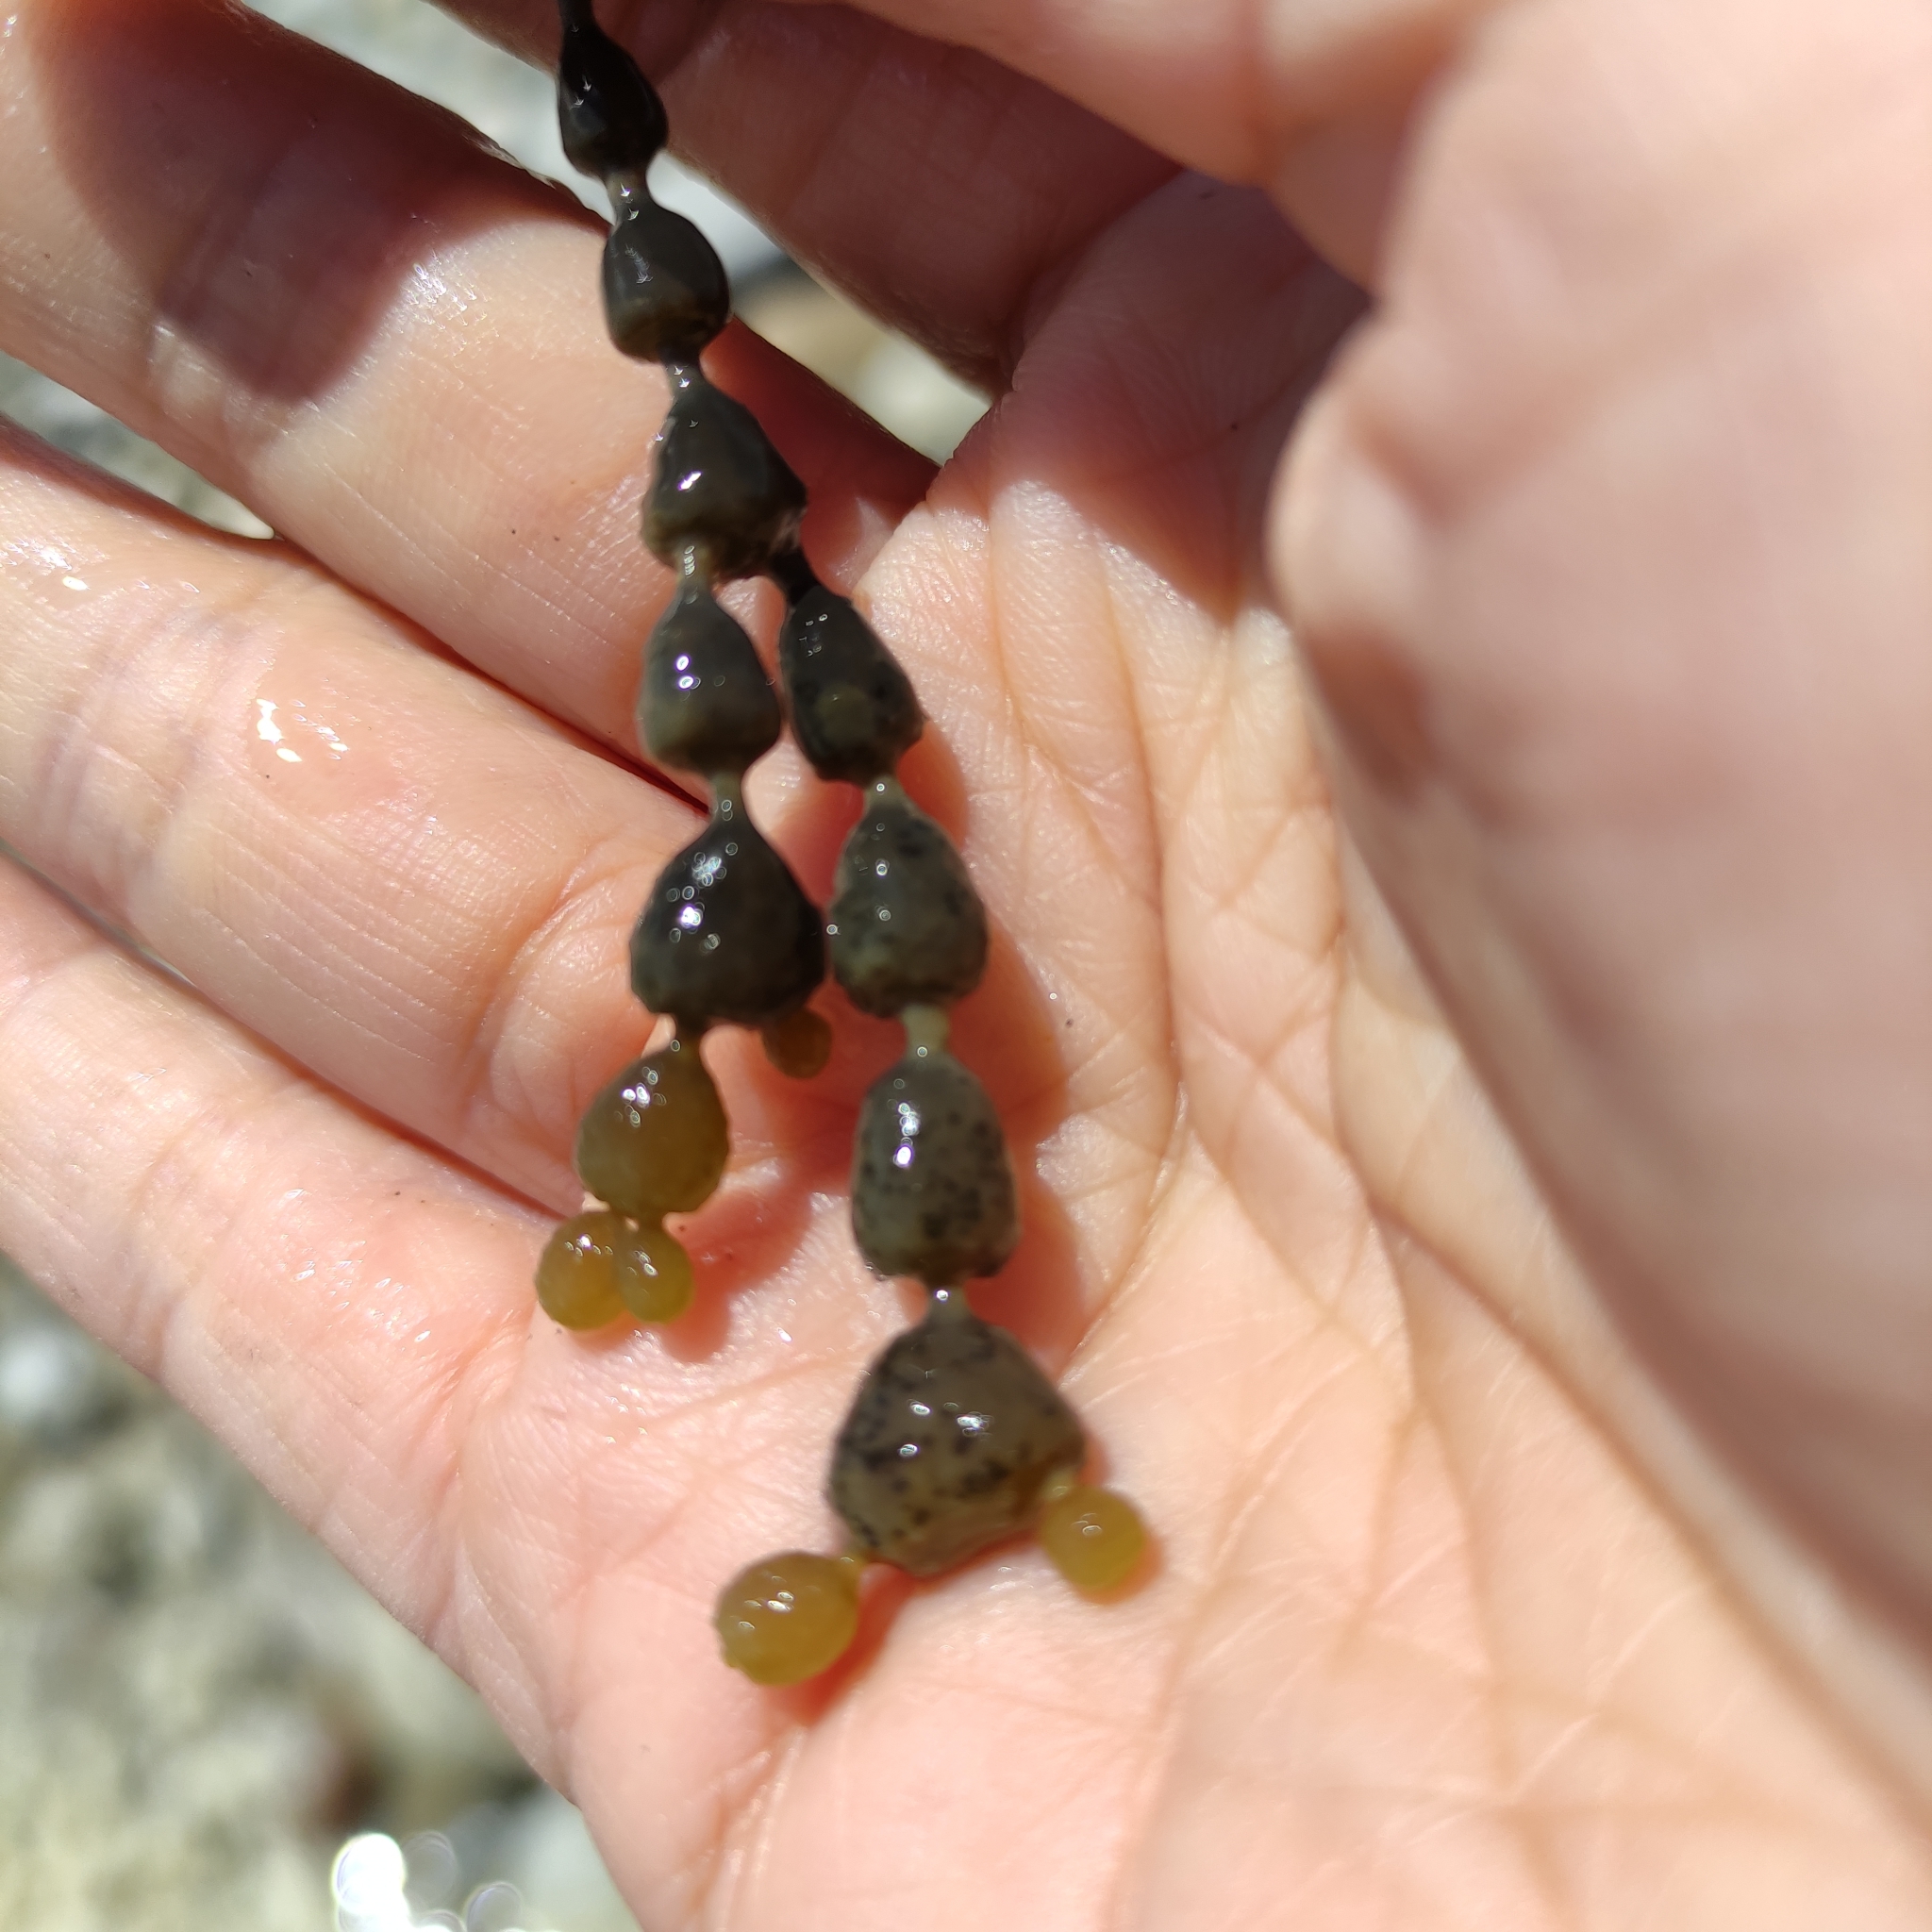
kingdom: Chromista
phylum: Ochrophyta
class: Phaeophyceae
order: Fucales
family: Hormosiraceae
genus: Hormosira
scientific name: Hormosira banksii
